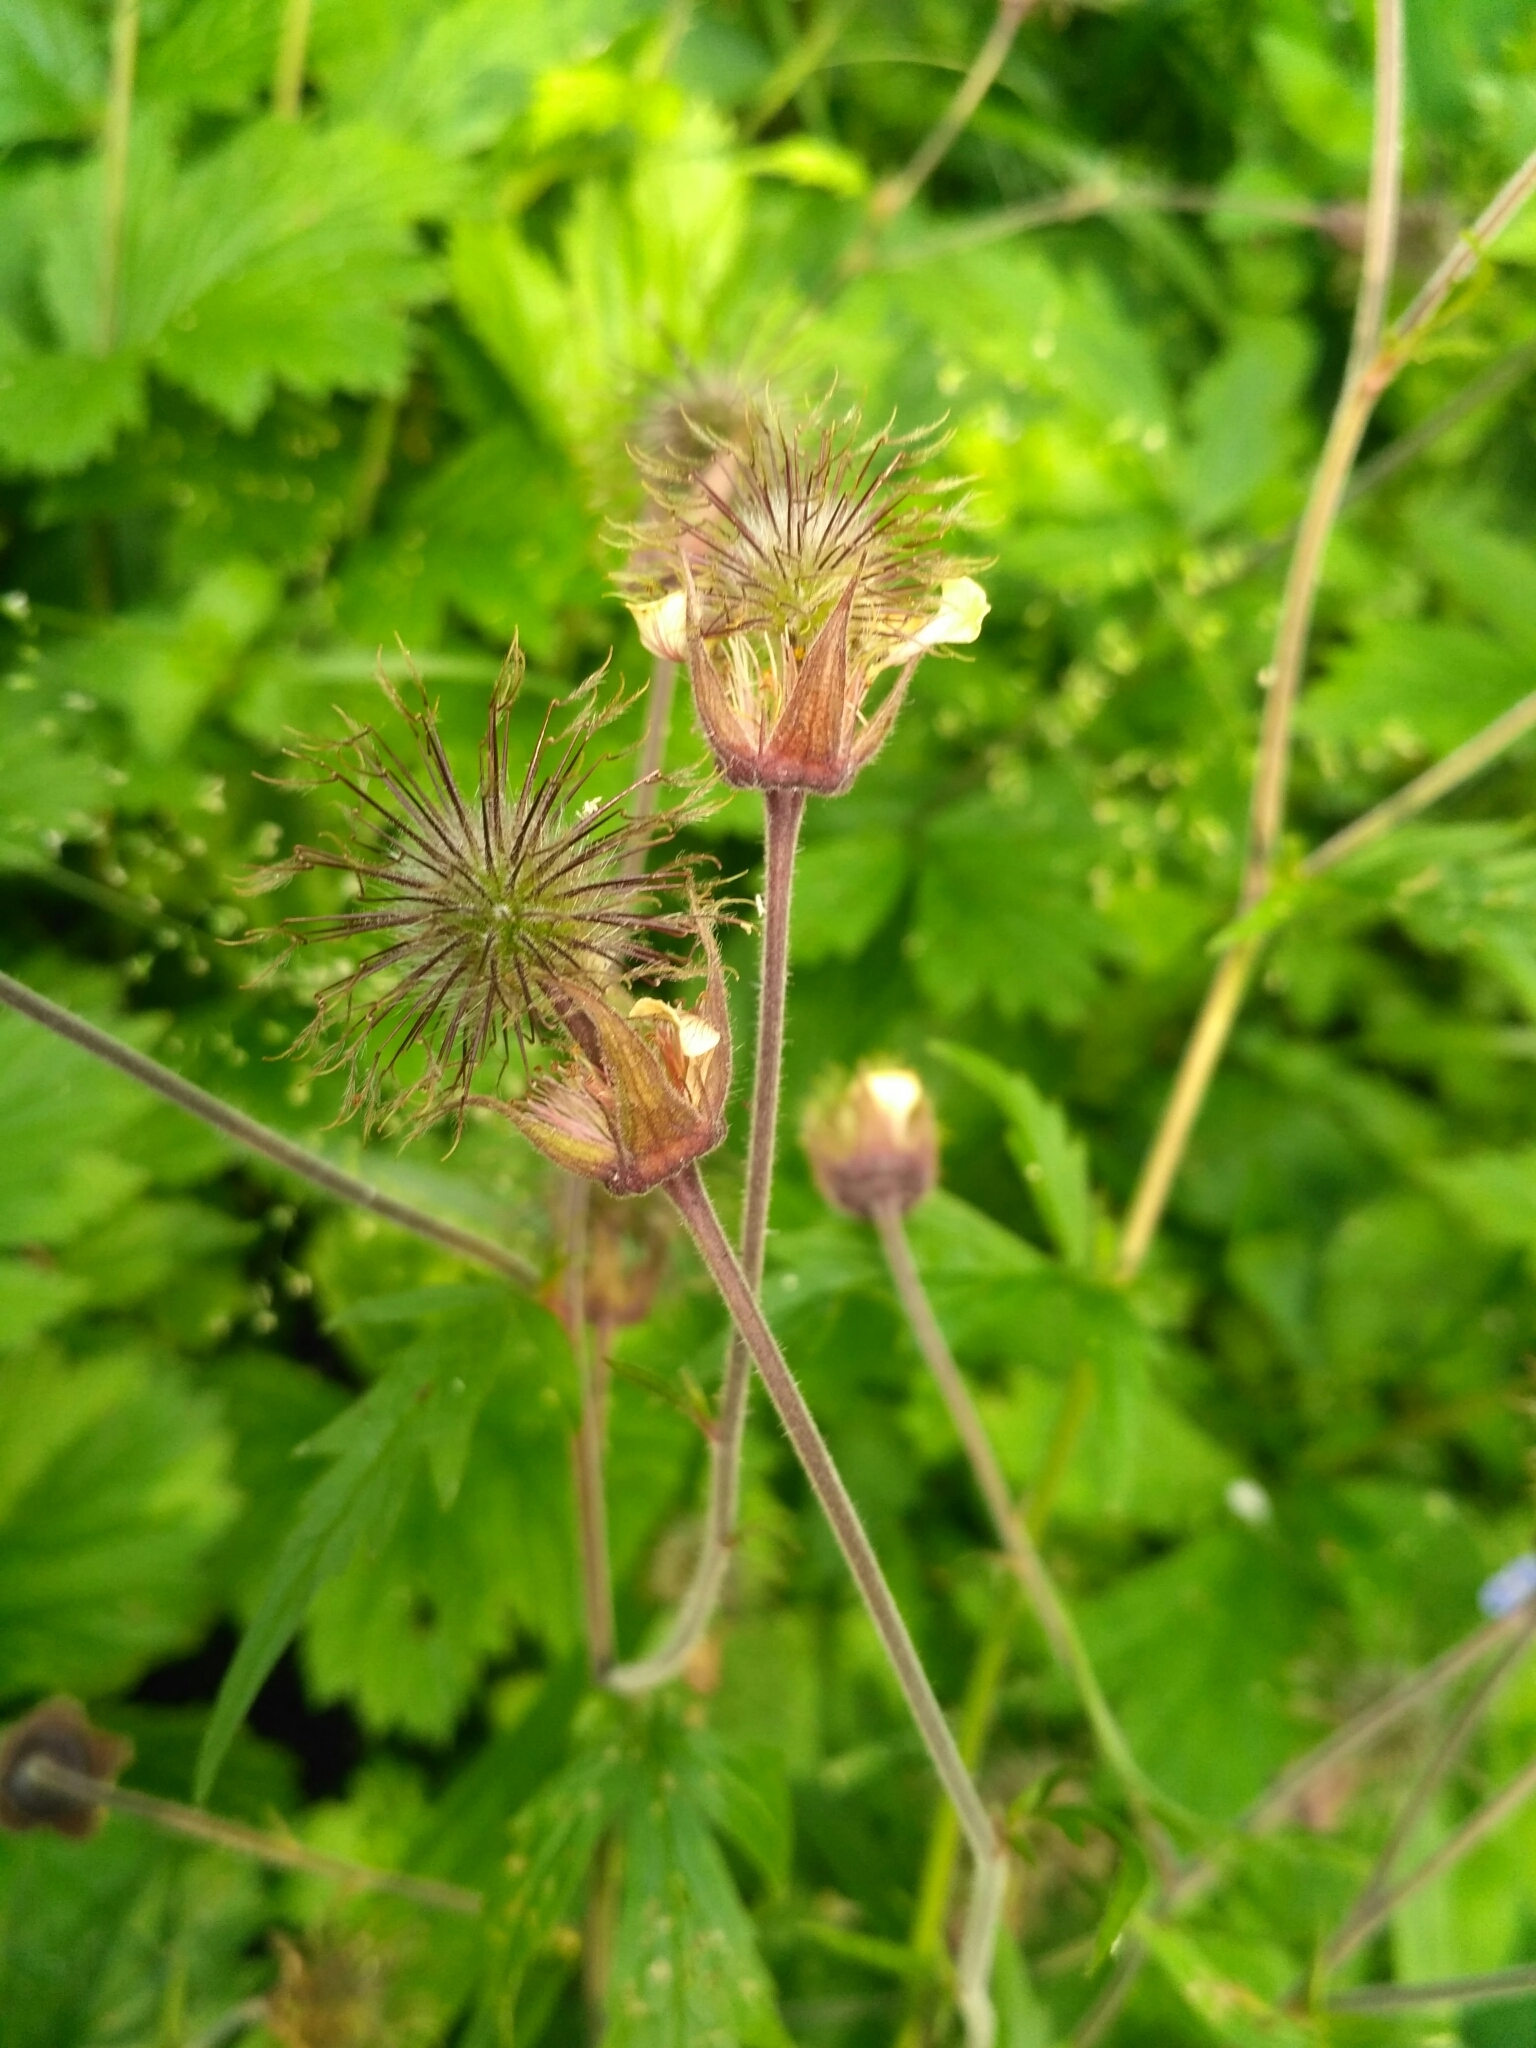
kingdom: Plantae
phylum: Tracheophyta
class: Magnoliopsida
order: Rosales
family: Rosaceae
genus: Geum
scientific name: Geum rivale
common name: Water avens
